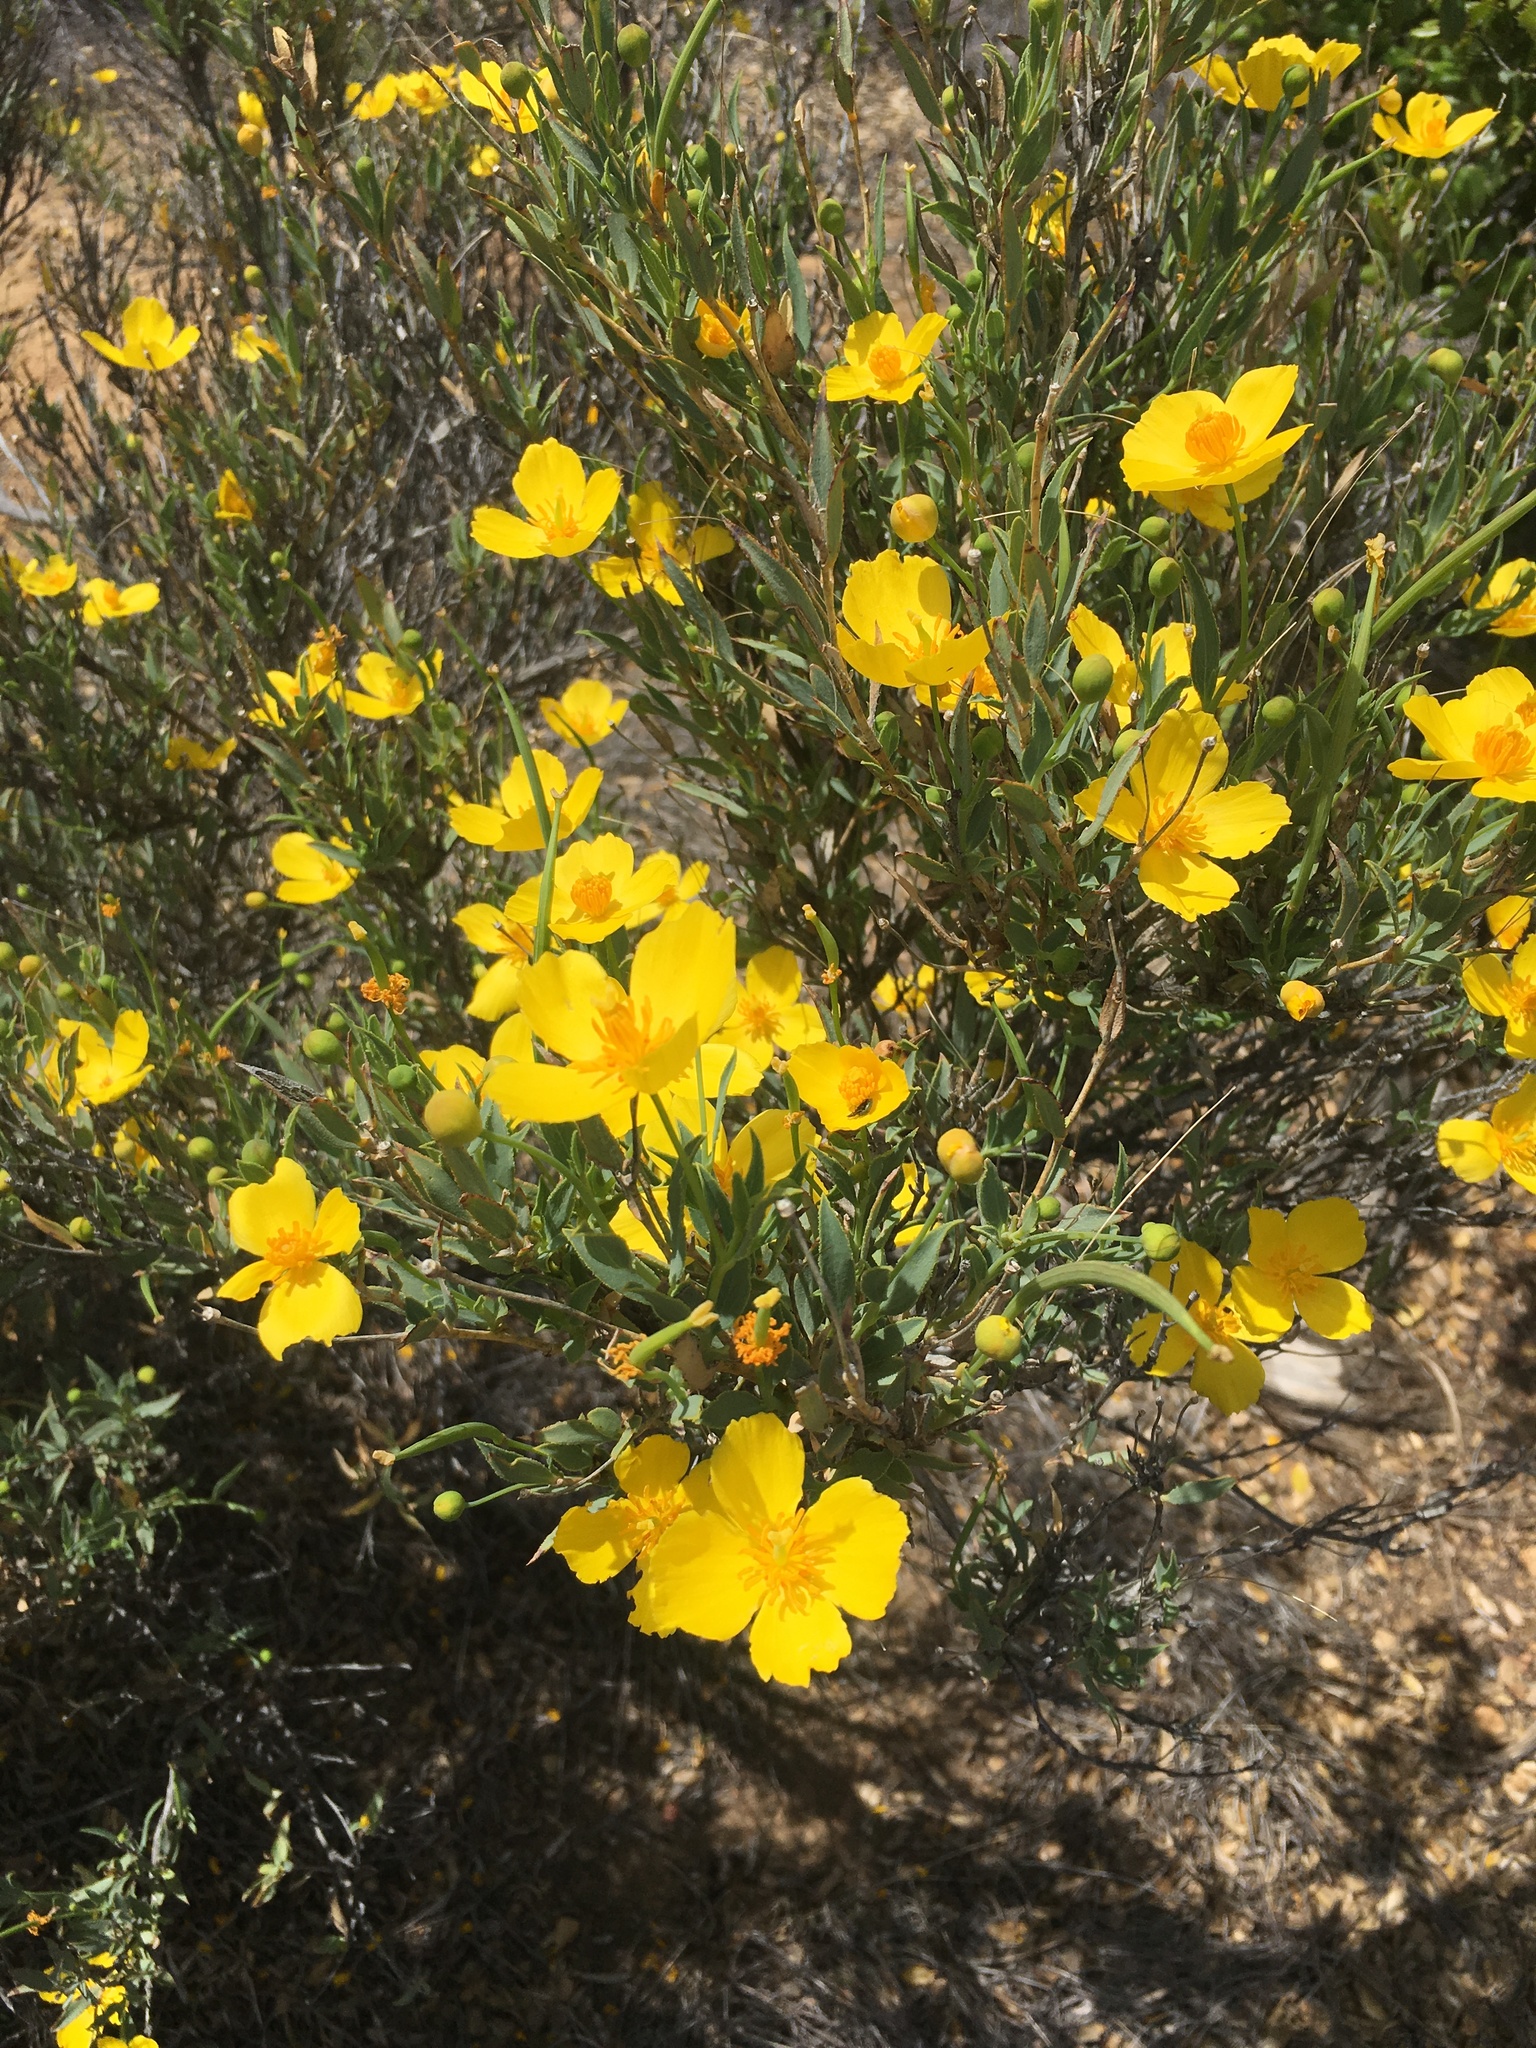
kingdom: Plantae
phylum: Tracheophyta
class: Magnoliopsida
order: Ranunculales
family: Papaveraceae
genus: Dendromecon
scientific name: Dendromecon rigida
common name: Tree poppy
